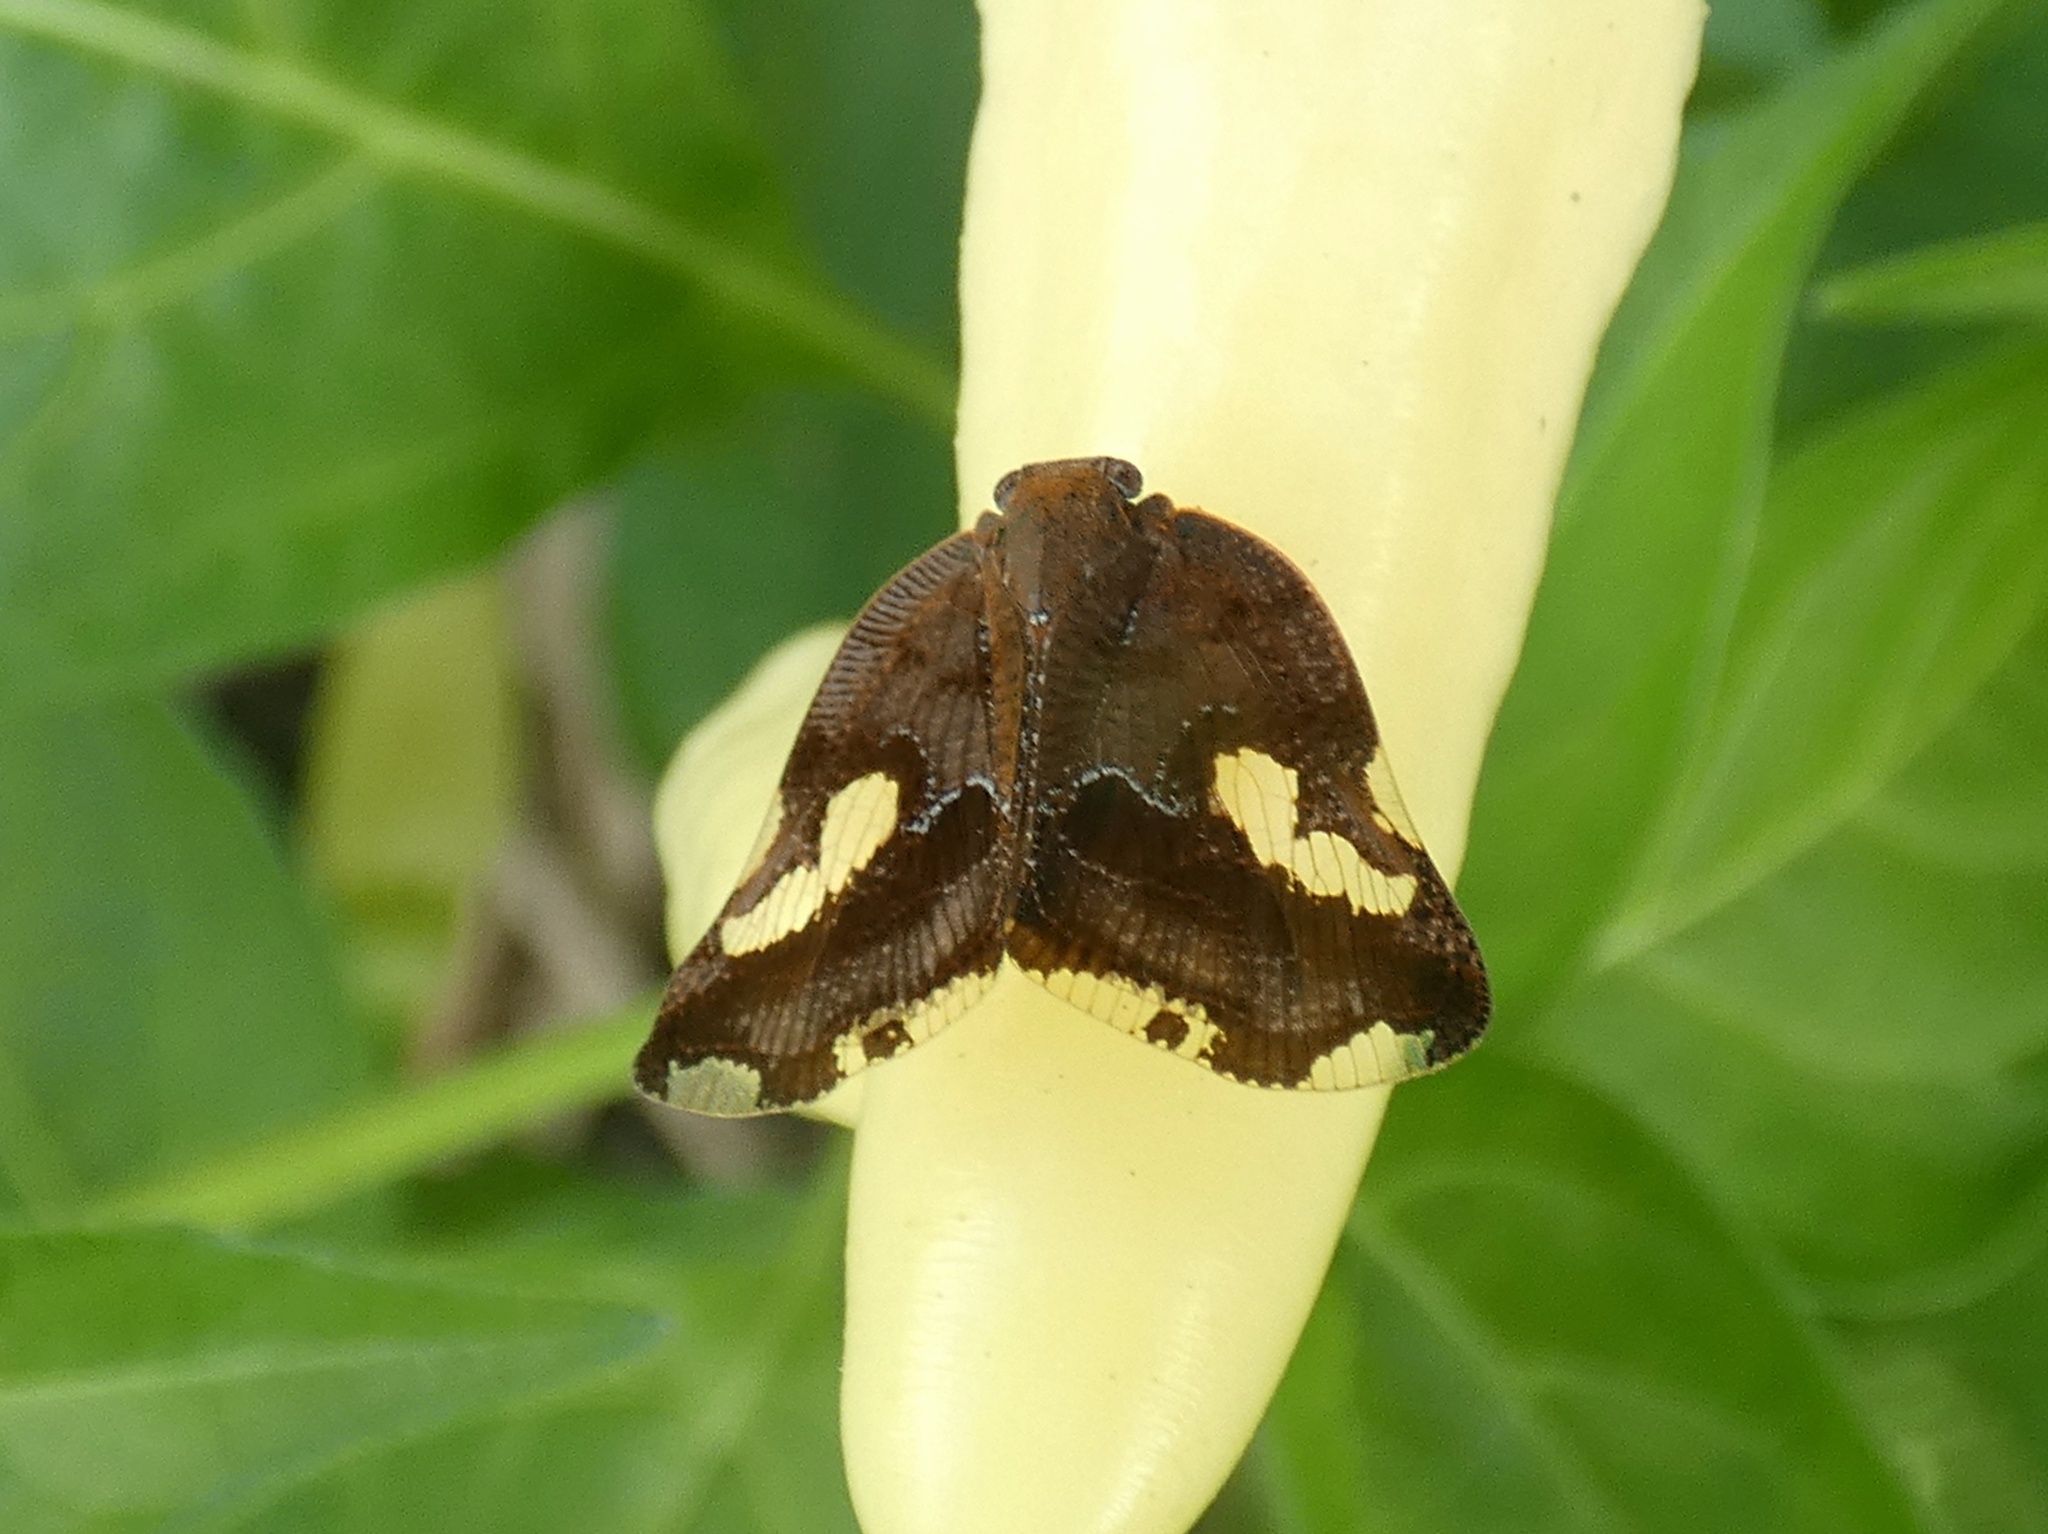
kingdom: Animalia
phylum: Arthropoda
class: Insecta
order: Hemiptera
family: Ricaniidae
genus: Ricania
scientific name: Ricania speculum
